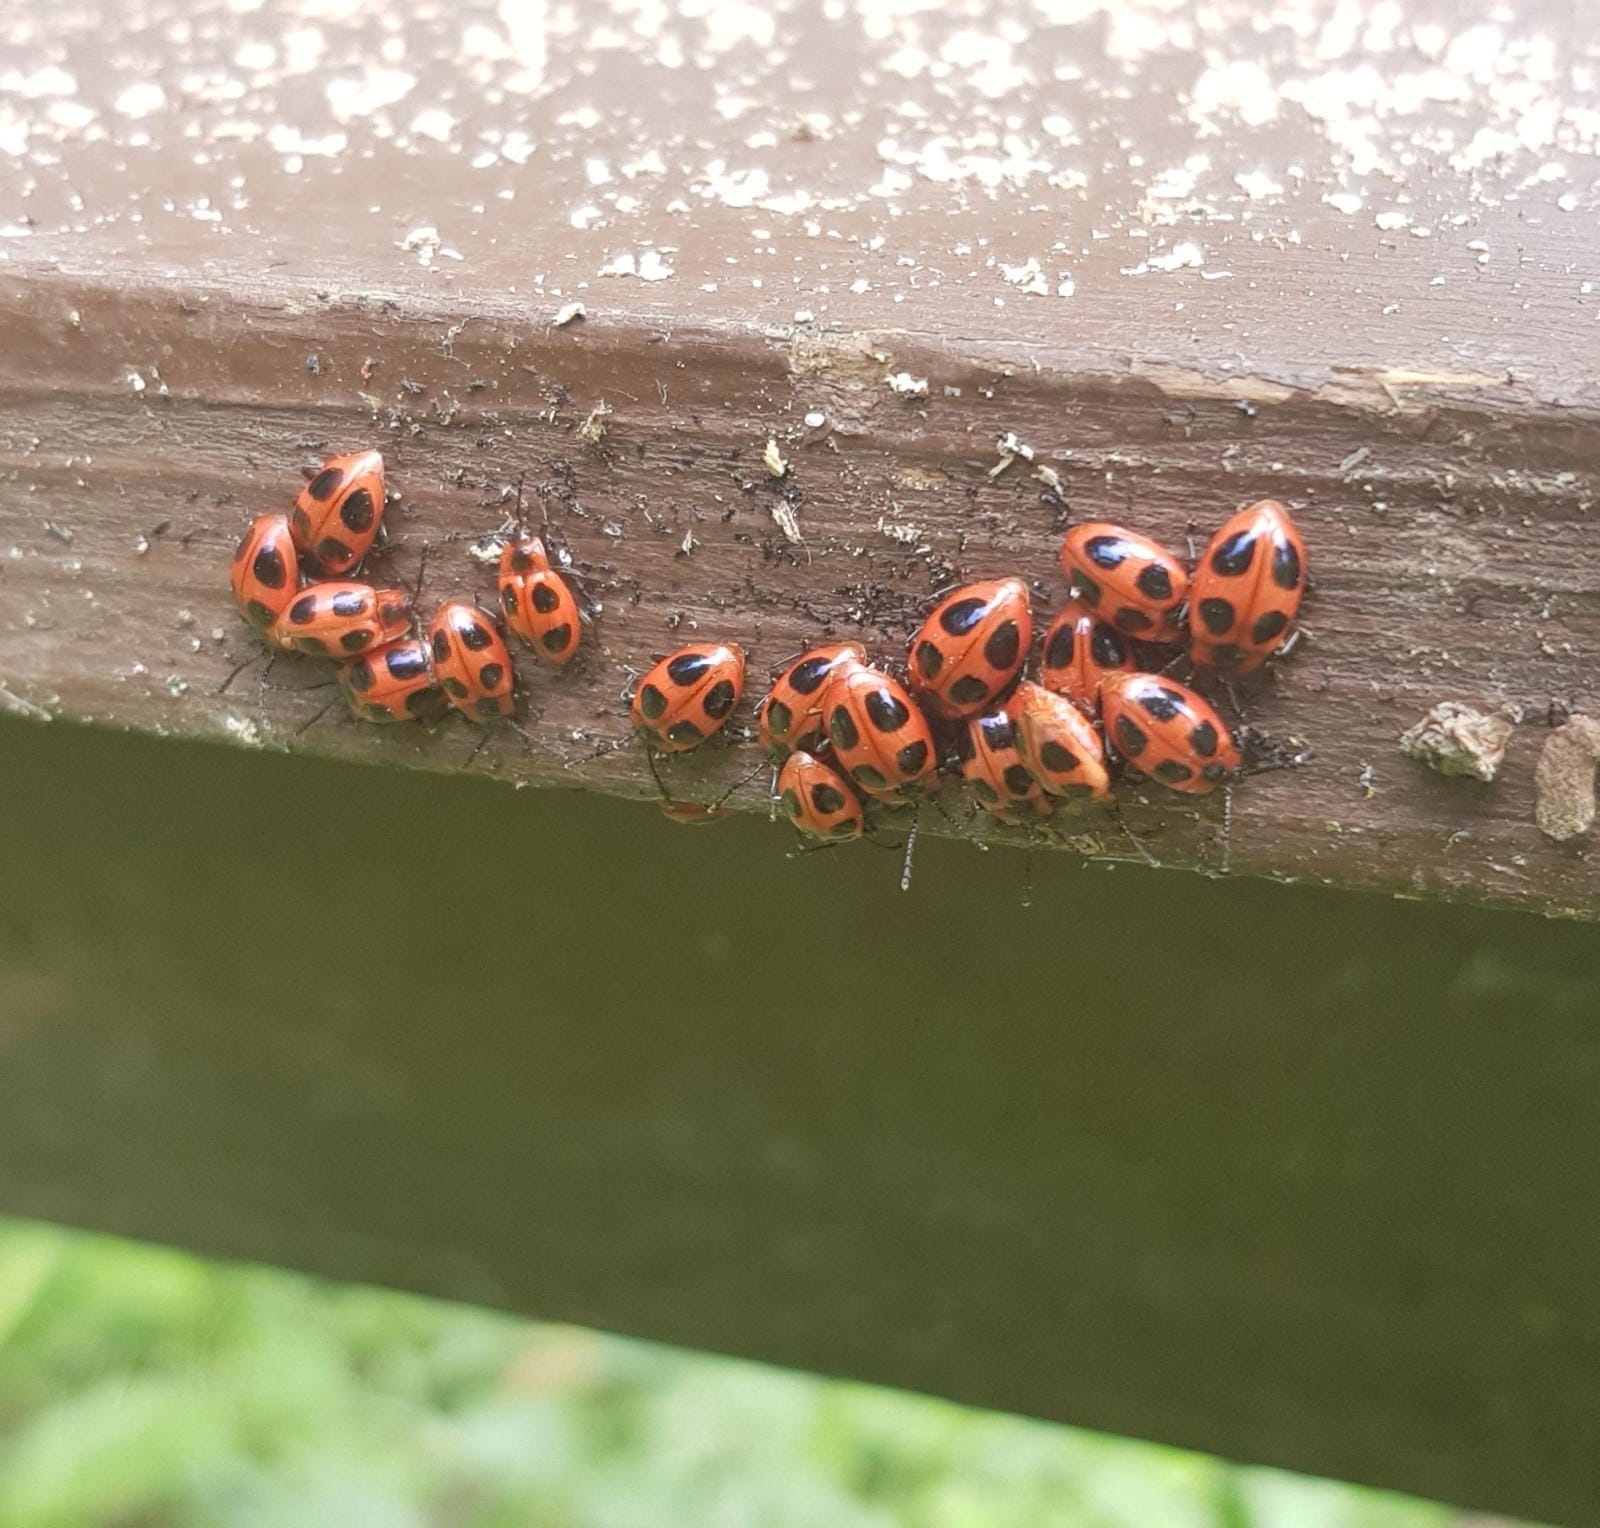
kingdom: Animalia
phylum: Arthropoda
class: Insecta
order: Coleoptera
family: Endomychidae
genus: Endomychus
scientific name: Endomychus coccineus
